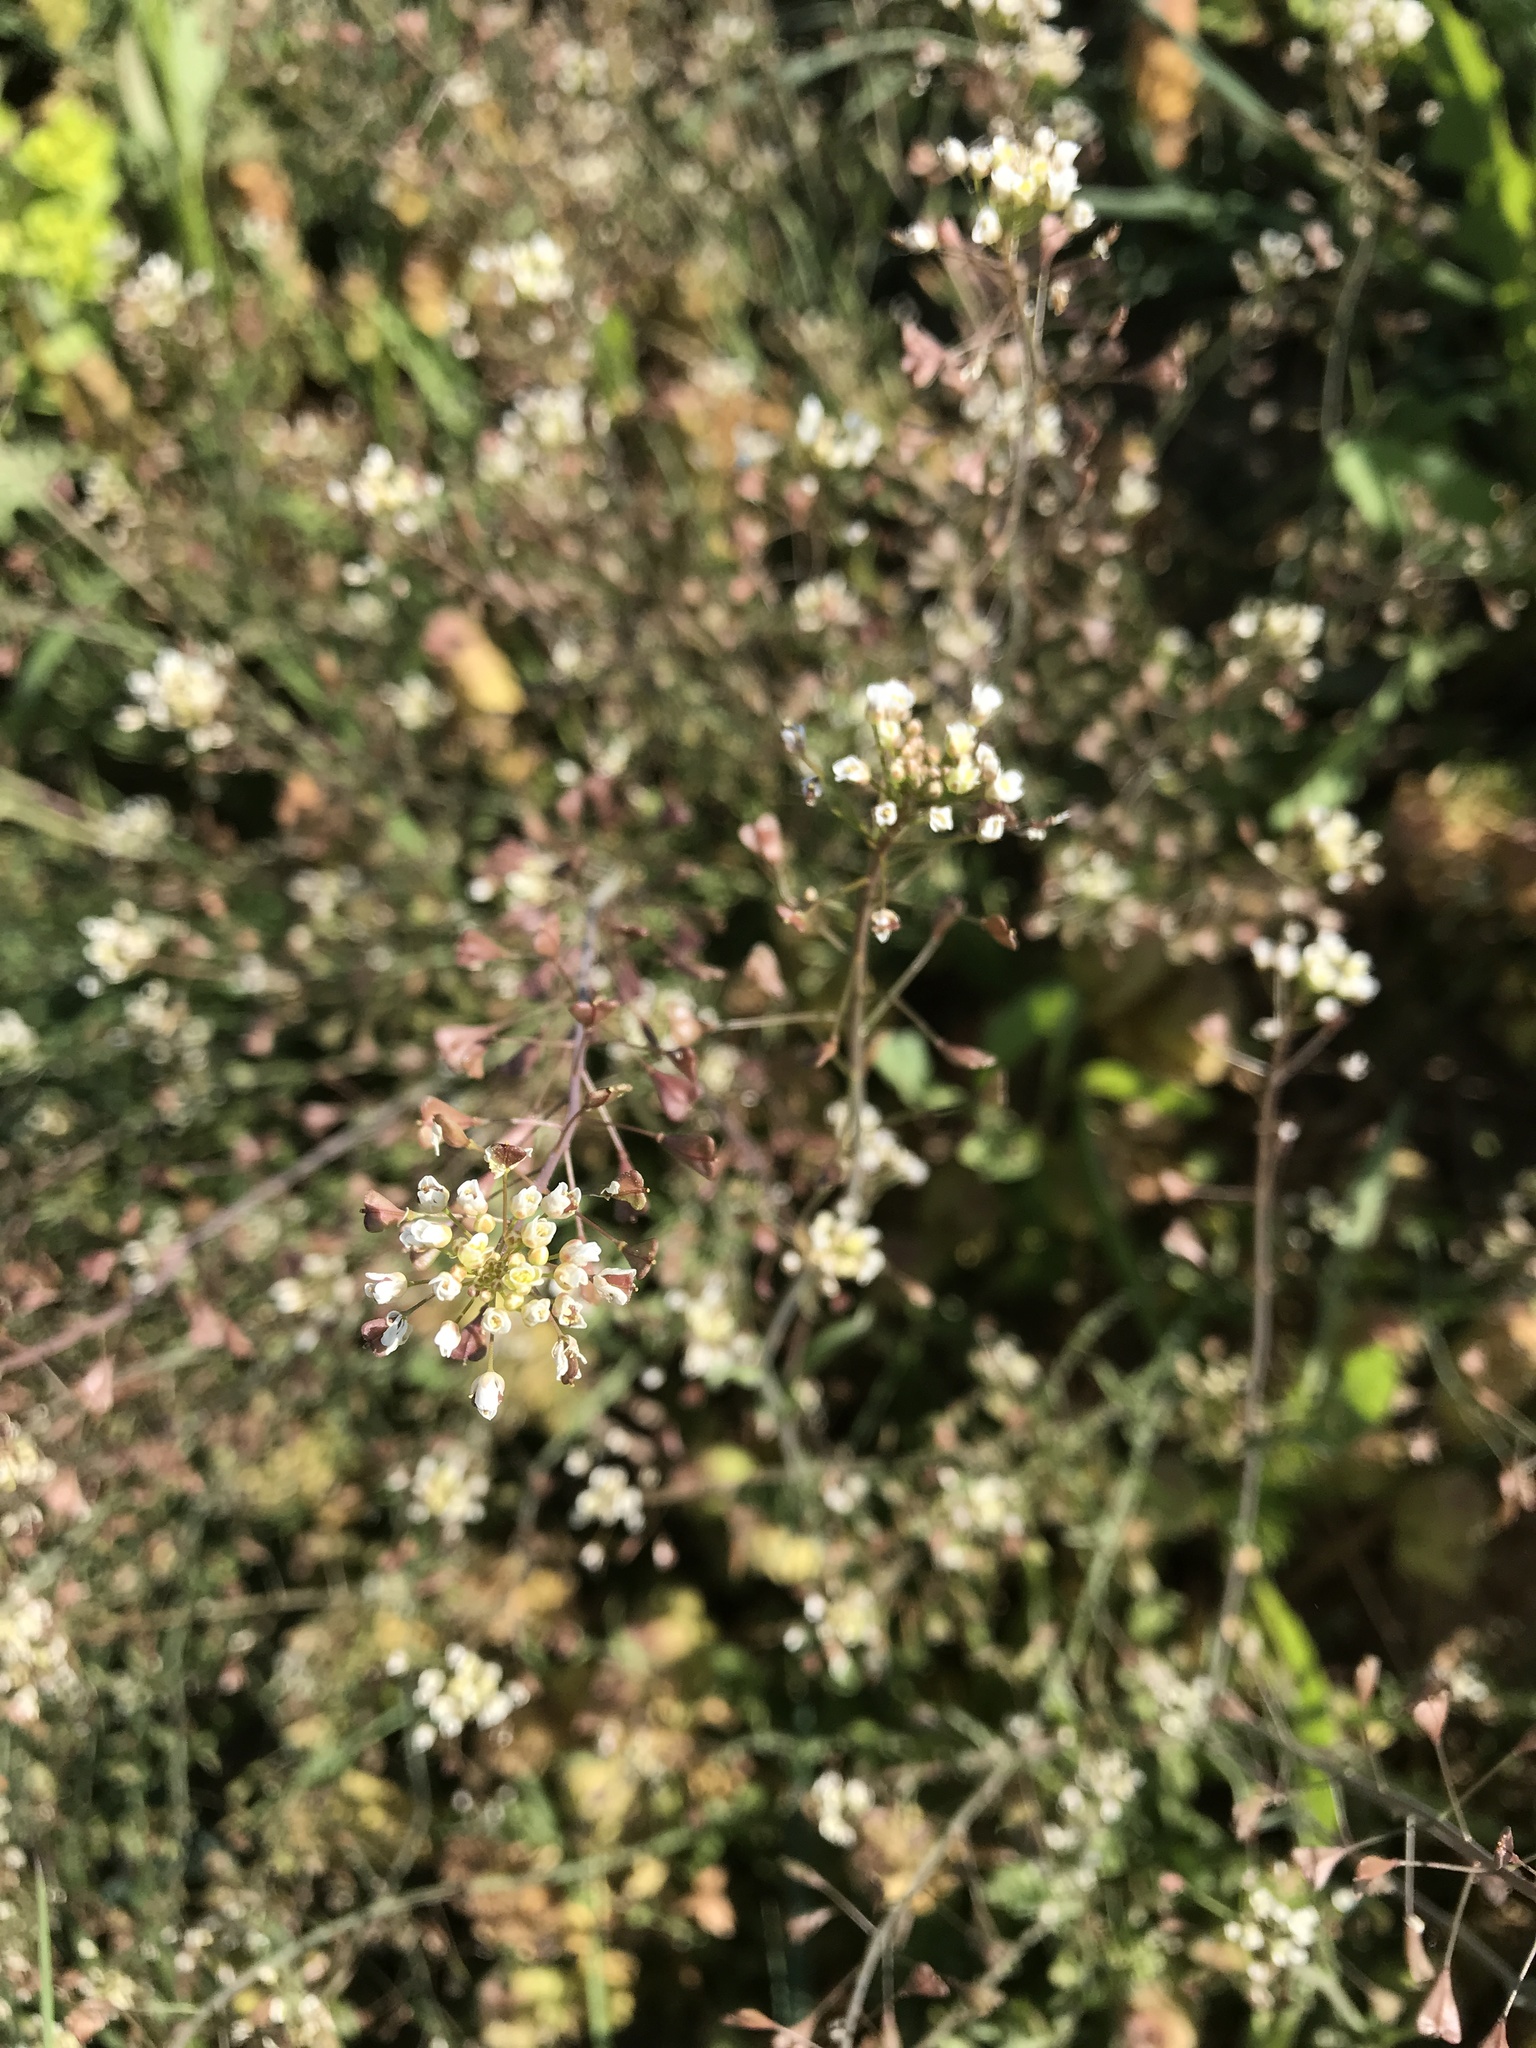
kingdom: Plantae
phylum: Tracheophyta
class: Magnoliopsida
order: Brassicales
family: Brassicaceae
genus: Capsella
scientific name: Capsella bursa-pastoris
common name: Shepherd's purse
